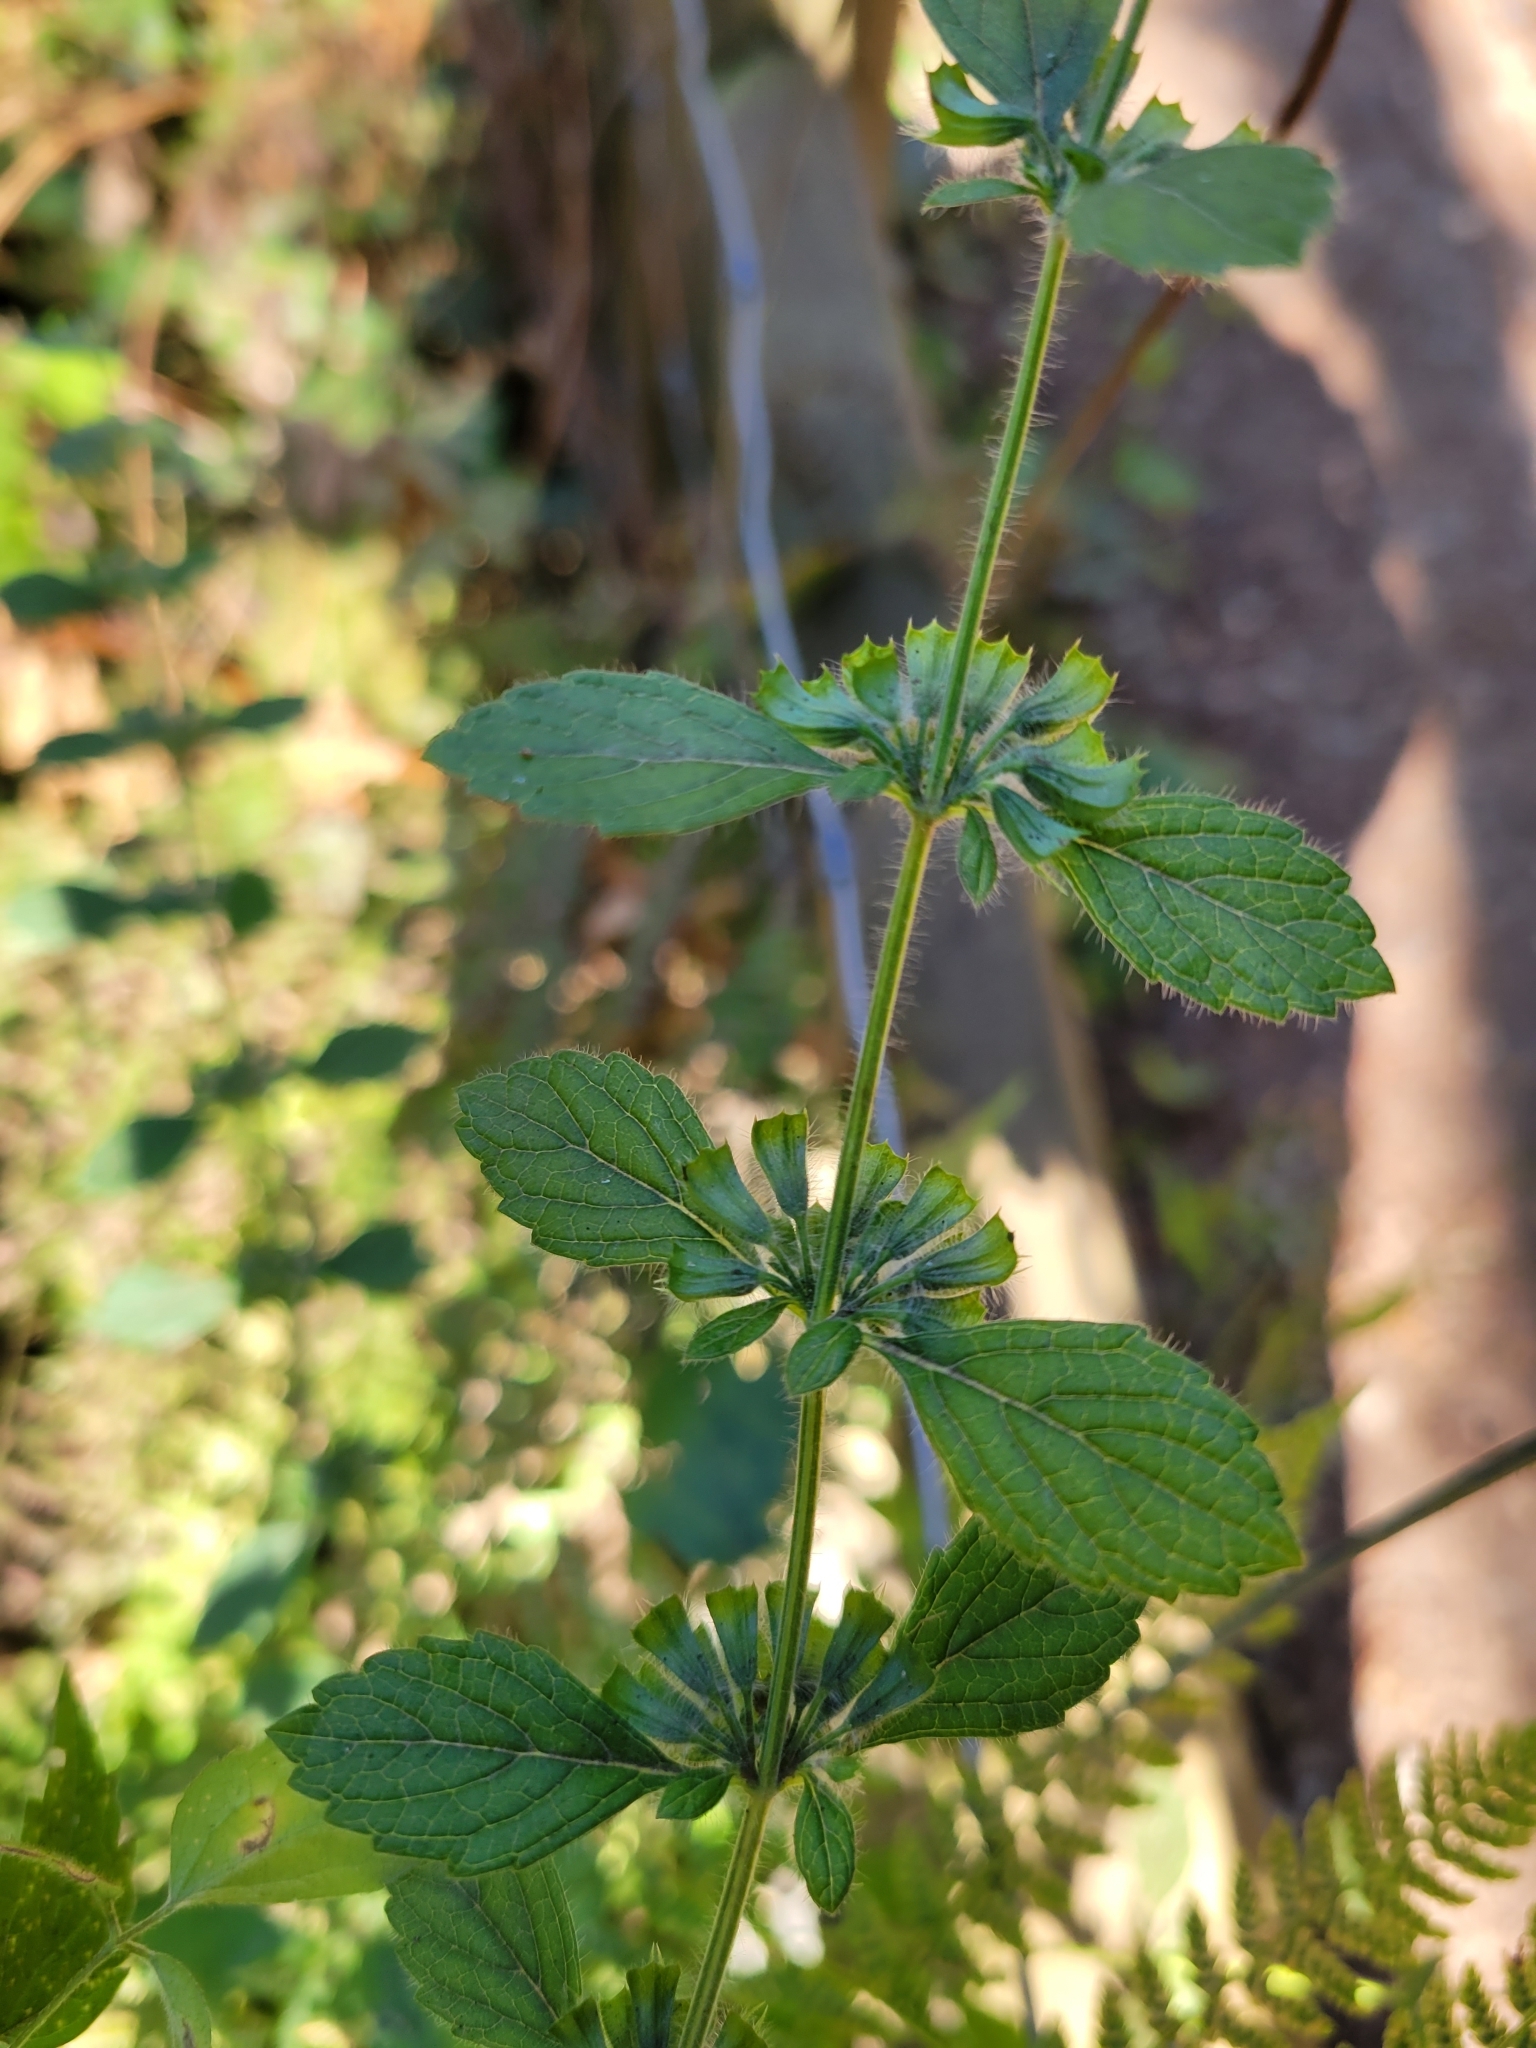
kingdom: Plantae
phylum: Tracheophyta
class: Magnoliopsida
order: Lamiales
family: Lamiaceae
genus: Melissa
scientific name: Melissa officinalis
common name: Balm
